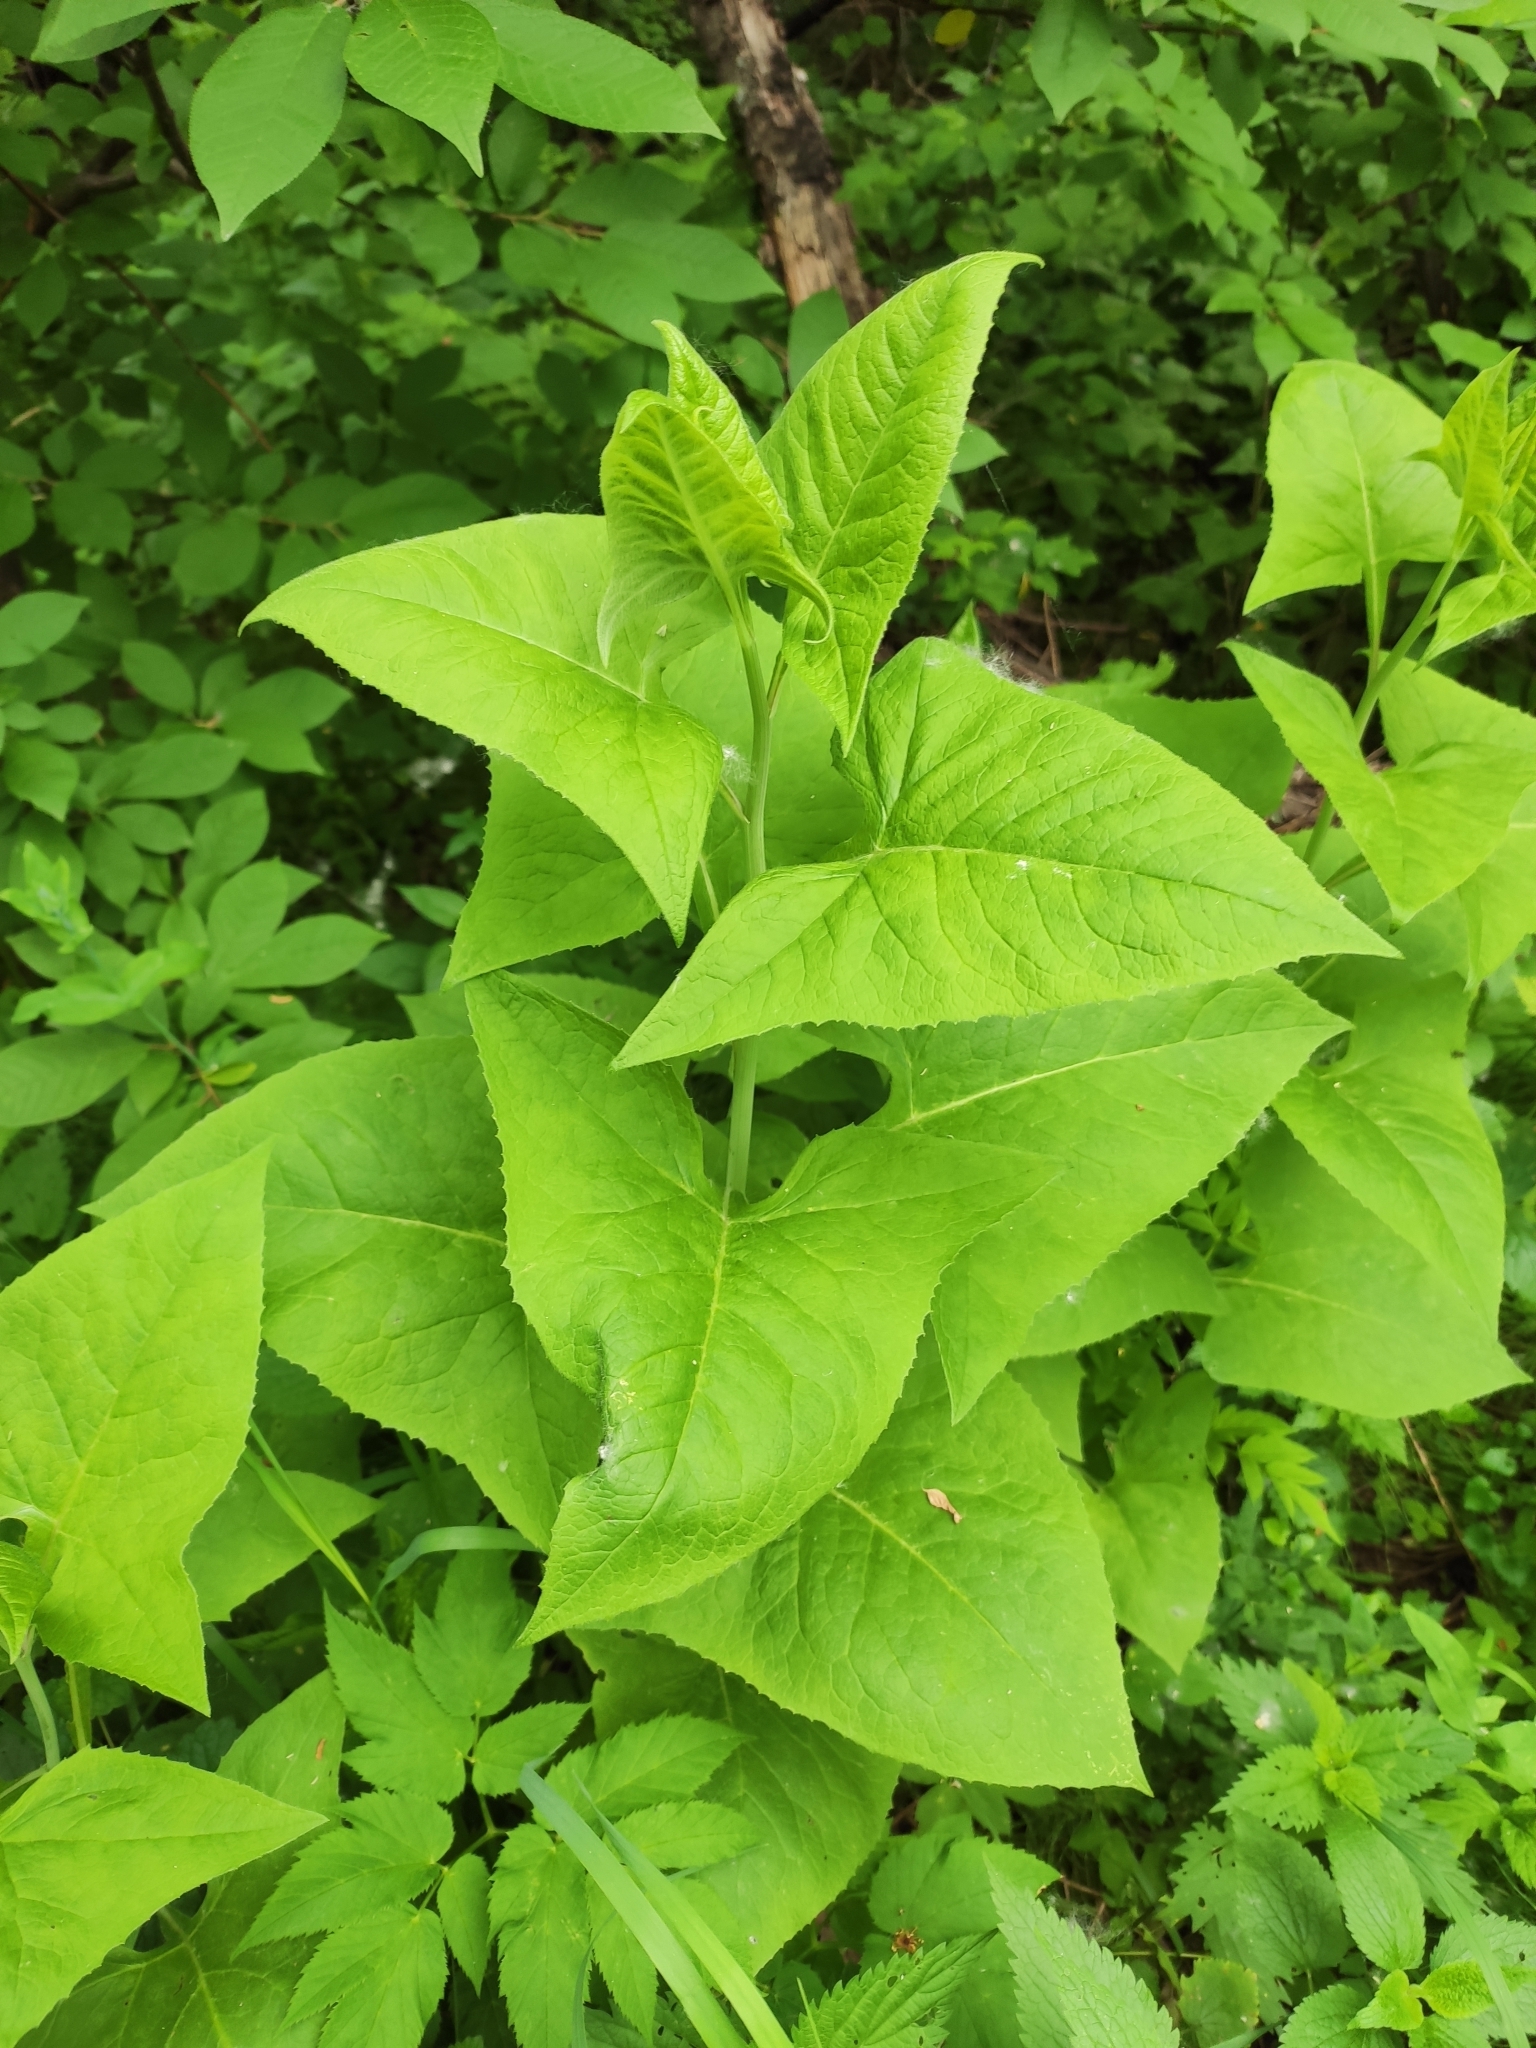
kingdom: Plantae
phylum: Tracheophyta
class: Magnoliopsida
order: Asterales
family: Asteraceae
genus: Parasenecio
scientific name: Parasenecio hastatus
